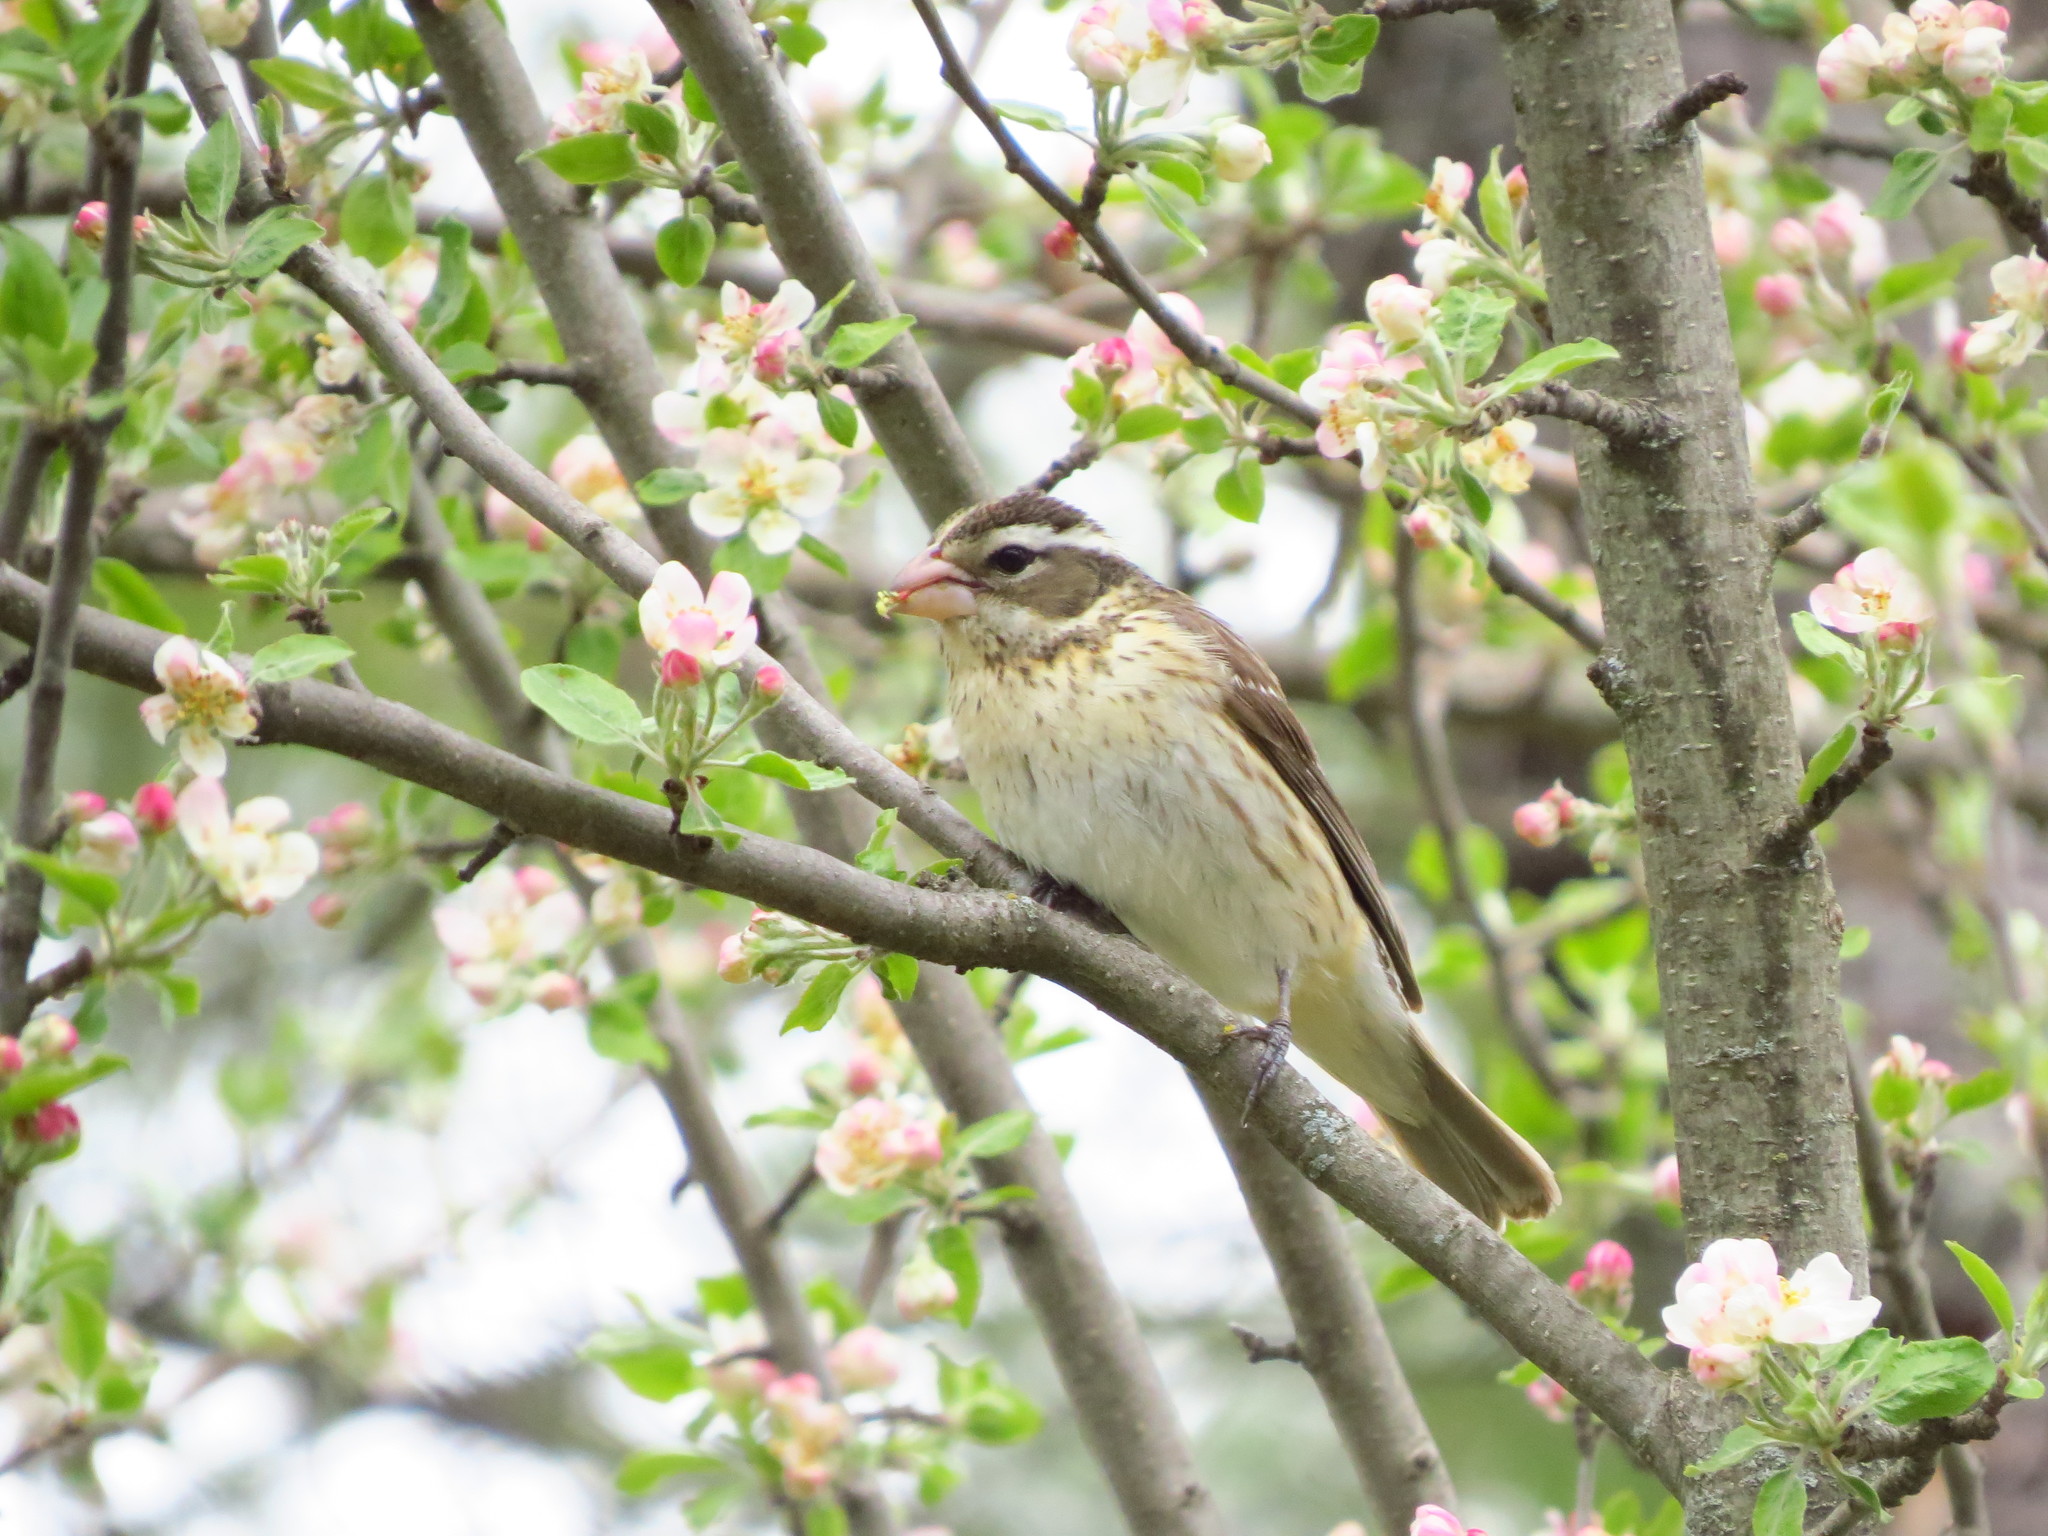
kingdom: Animalia
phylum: Chordata
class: Aves
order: Passeriformes
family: Cardinalidae
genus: Pheucticus
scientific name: Pheucticus ludovicianus
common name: Rose-breasted grosbeak
